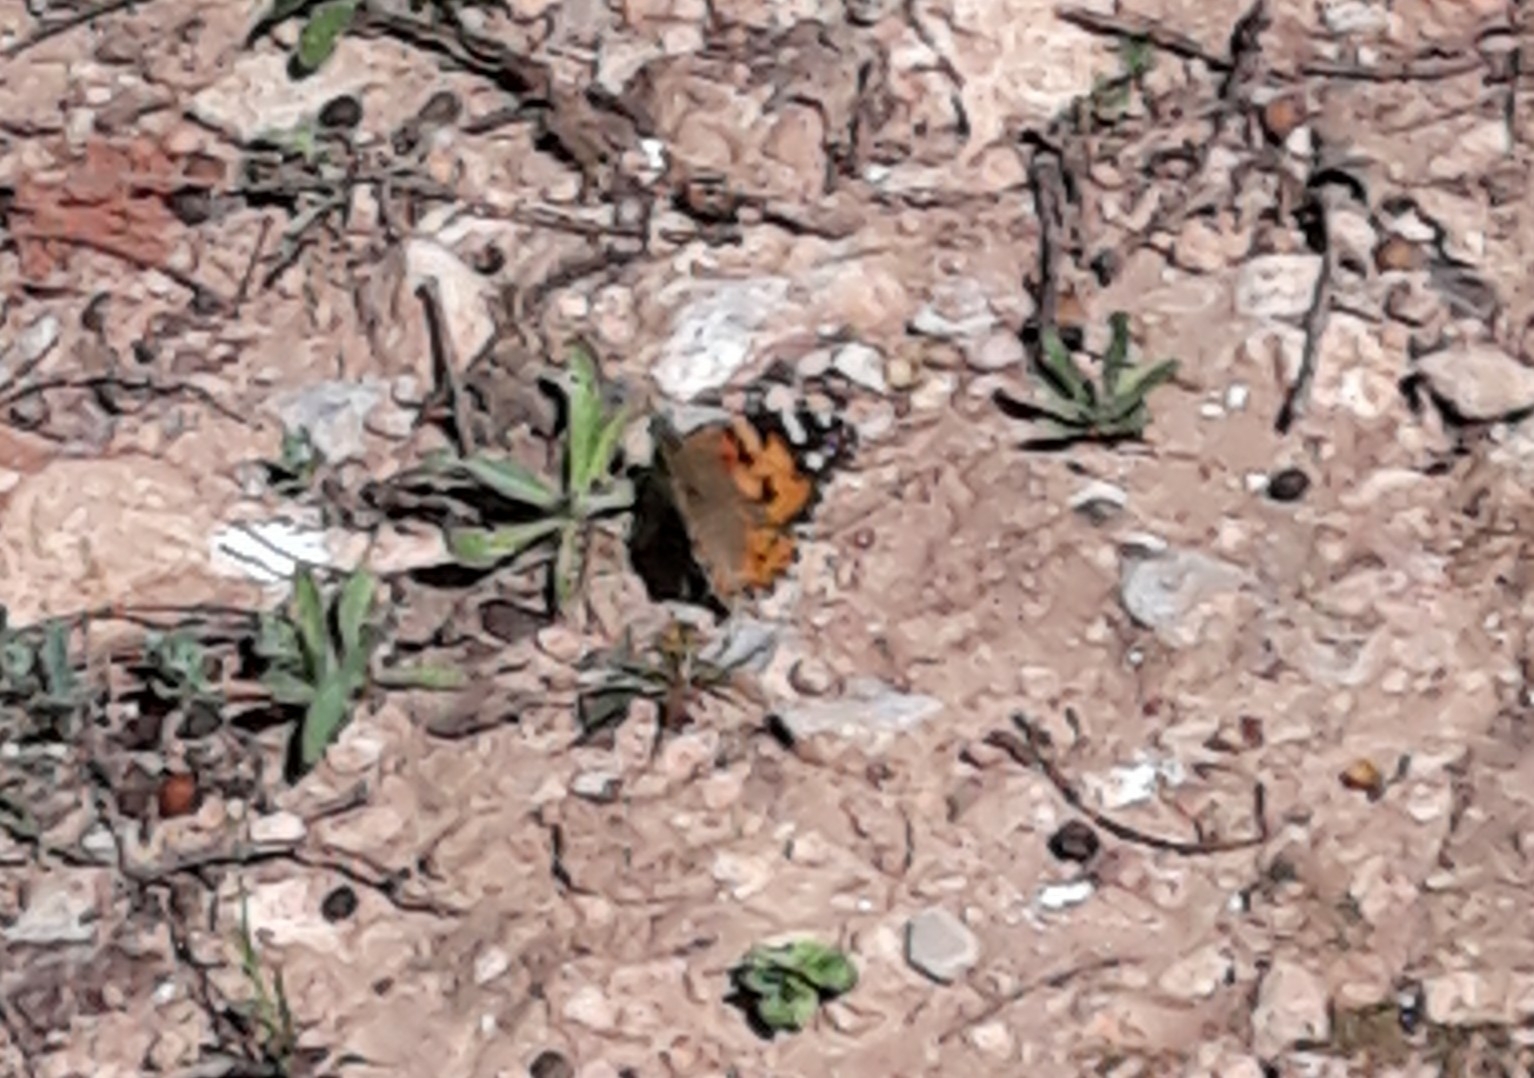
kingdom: Animalia
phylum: Arthropoda
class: Insecta
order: Lepidoptera
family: Nymphalidae
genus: Vanessa
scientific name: Vanessa cardui
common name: Painted lady
